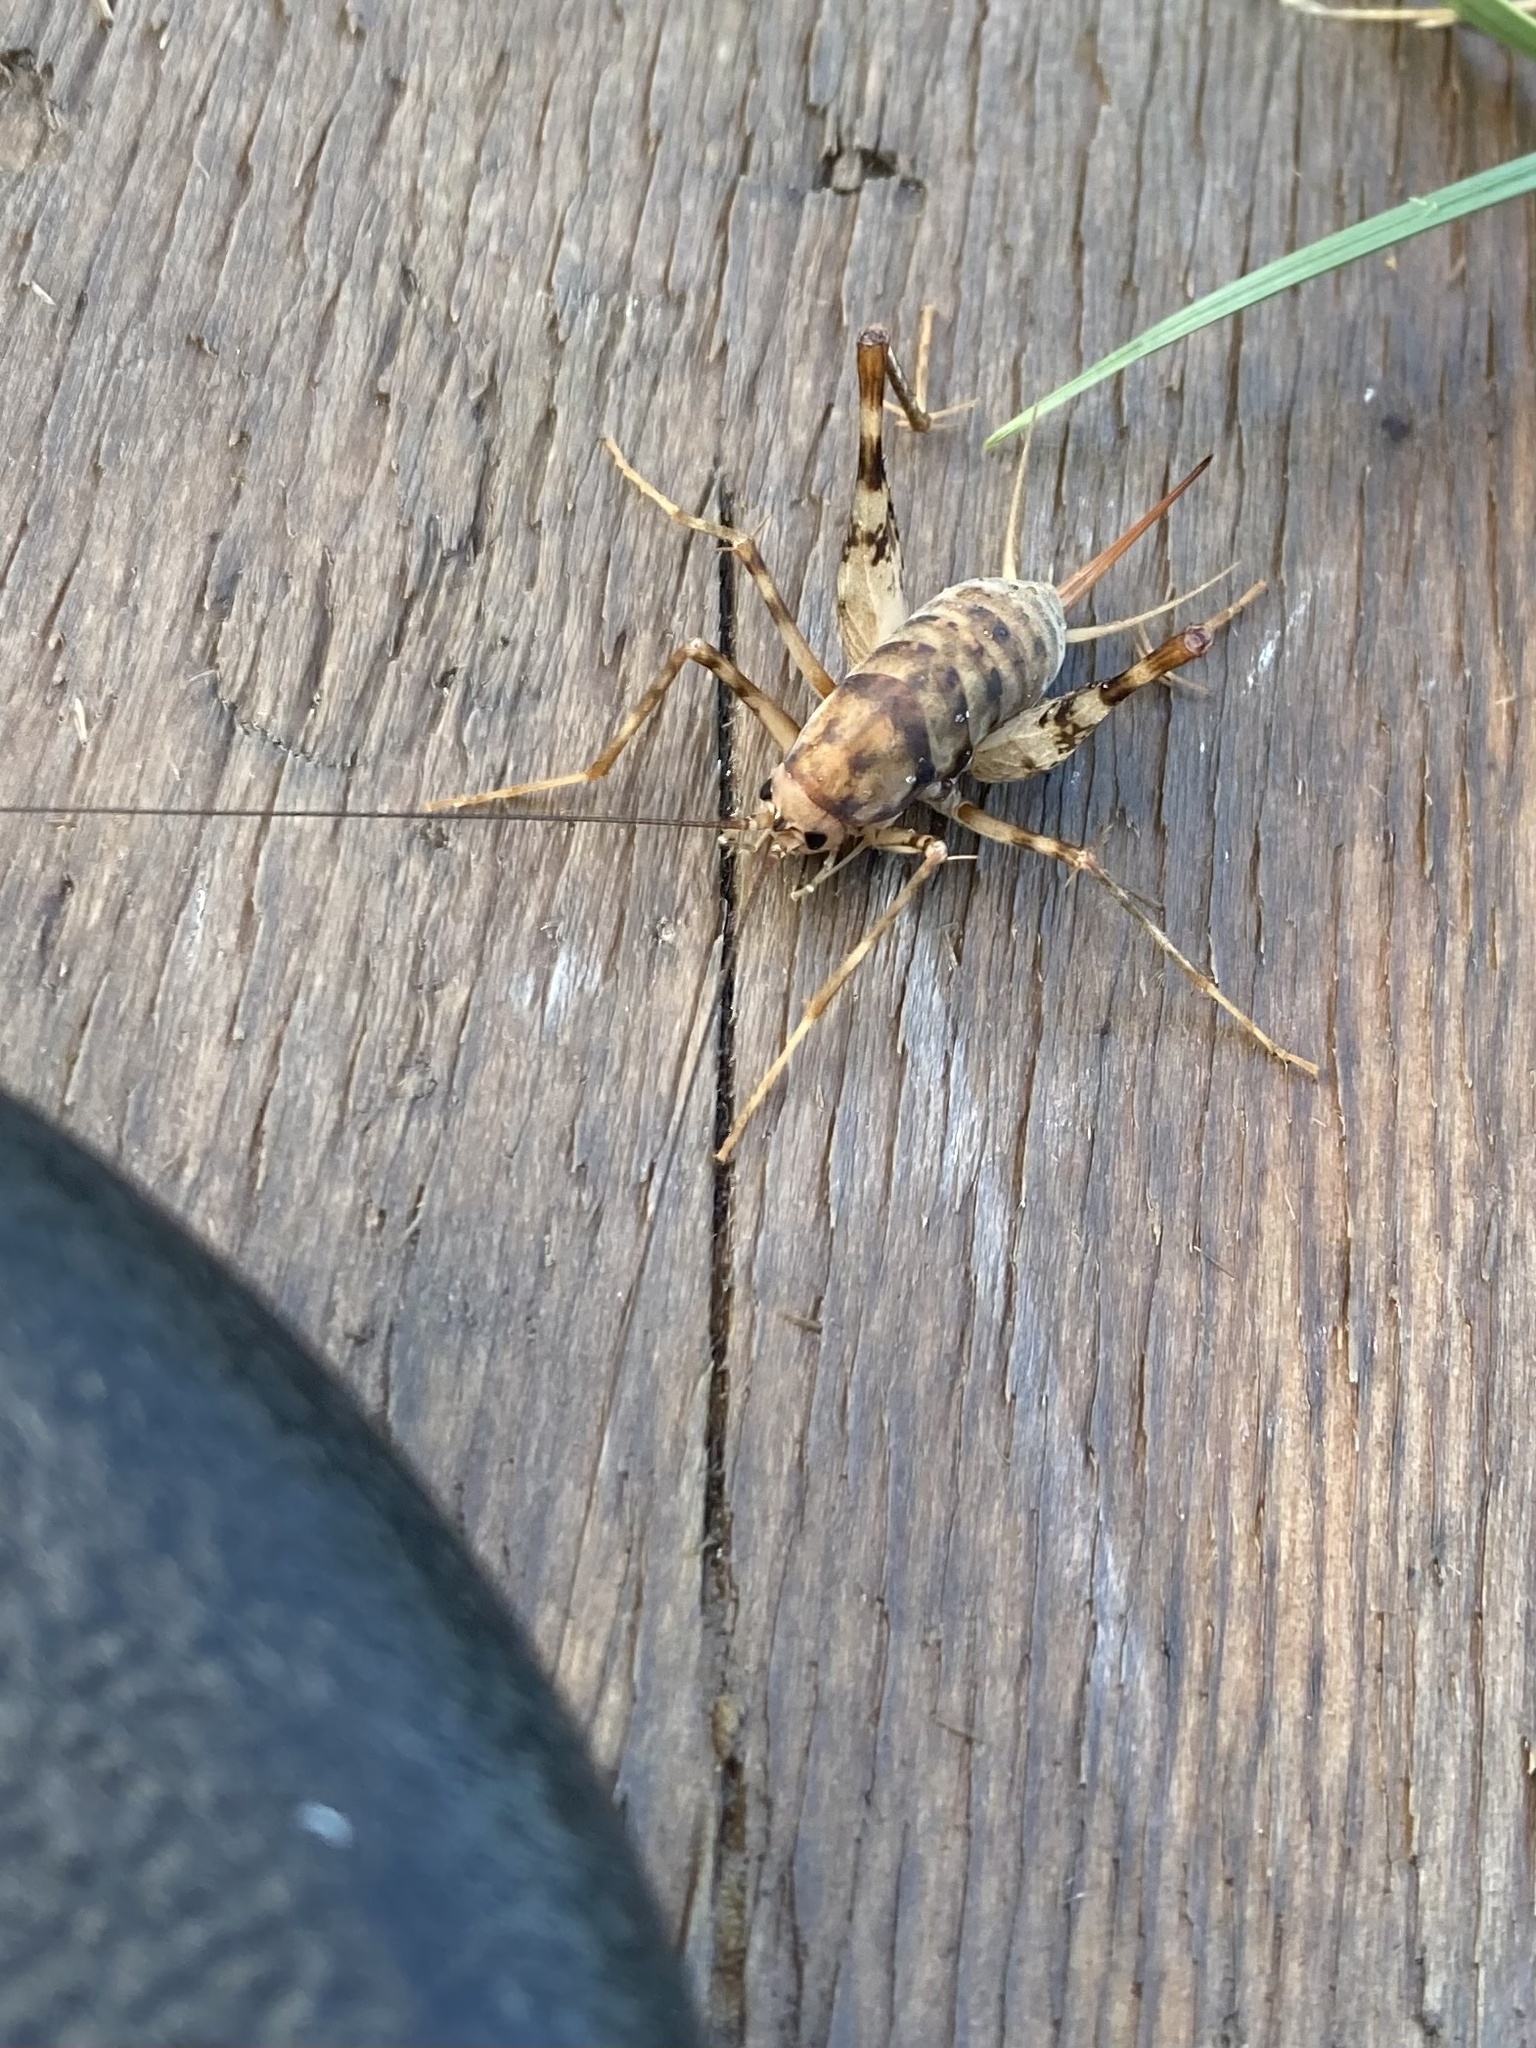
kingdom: Animalia
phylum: Arthropoda
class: Insecta
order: Orthoptera
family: Rhaphidophoridae
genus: Tachycines
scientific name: Tachycines asynamorus
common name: Greenhouse camel cricket
